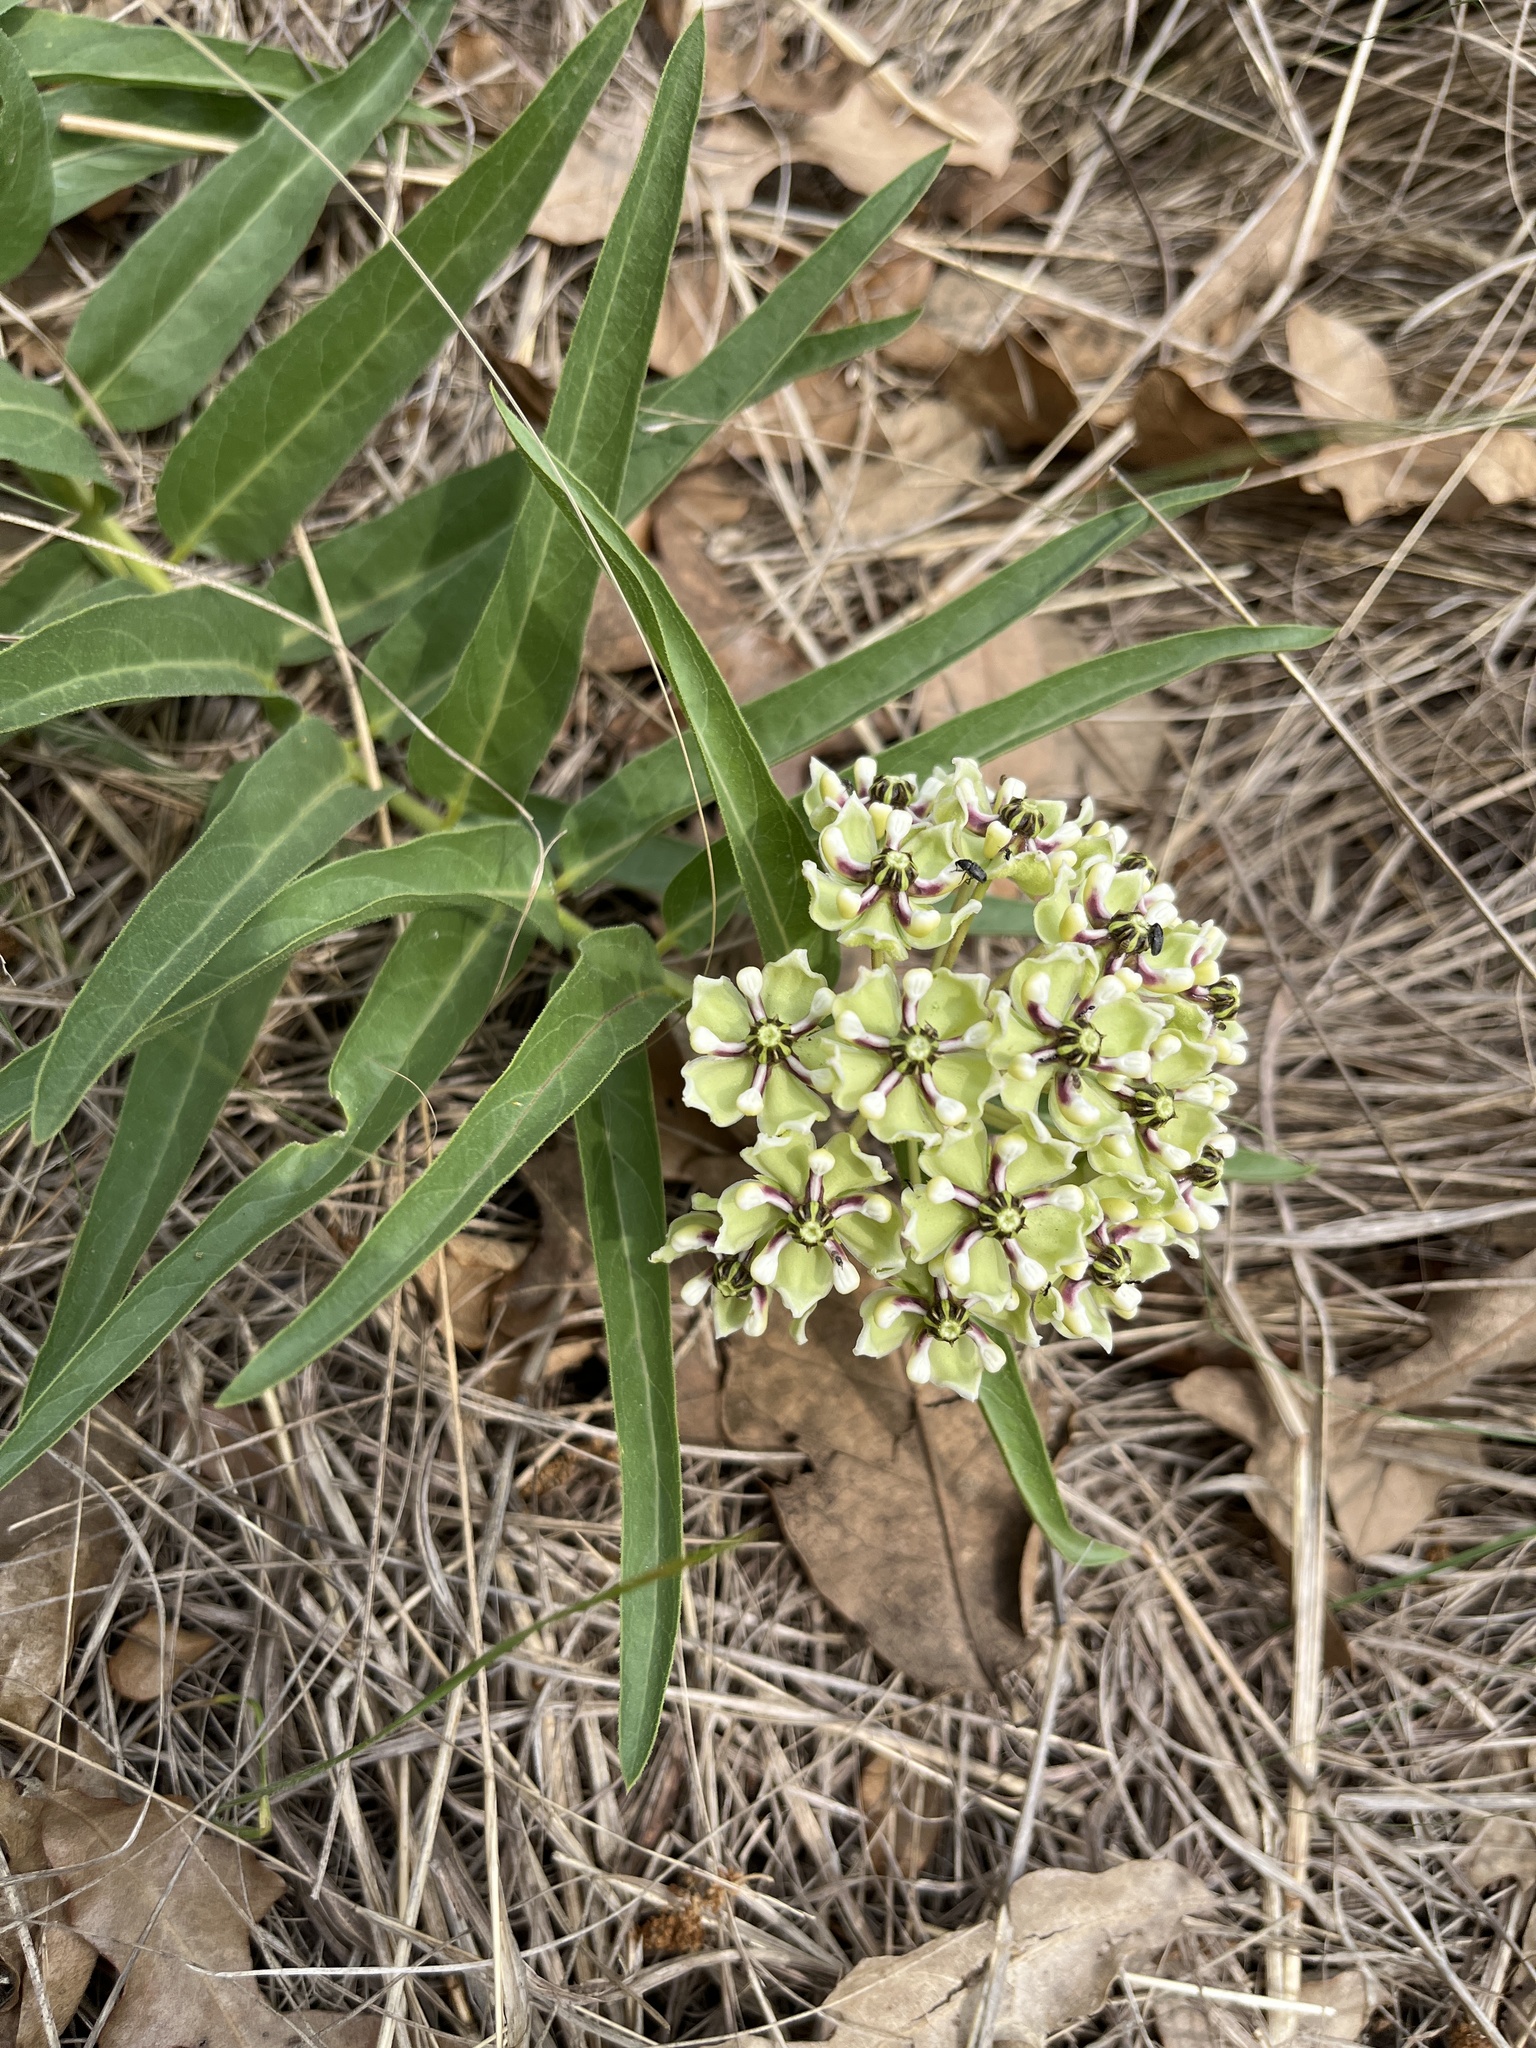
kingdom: Plantae
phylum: Tracheophyta
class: Magnoliopsida
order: Gentianales
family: Apocynaceae
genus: Asclepias
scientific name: Asclepias asperula
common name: Antelope horns
